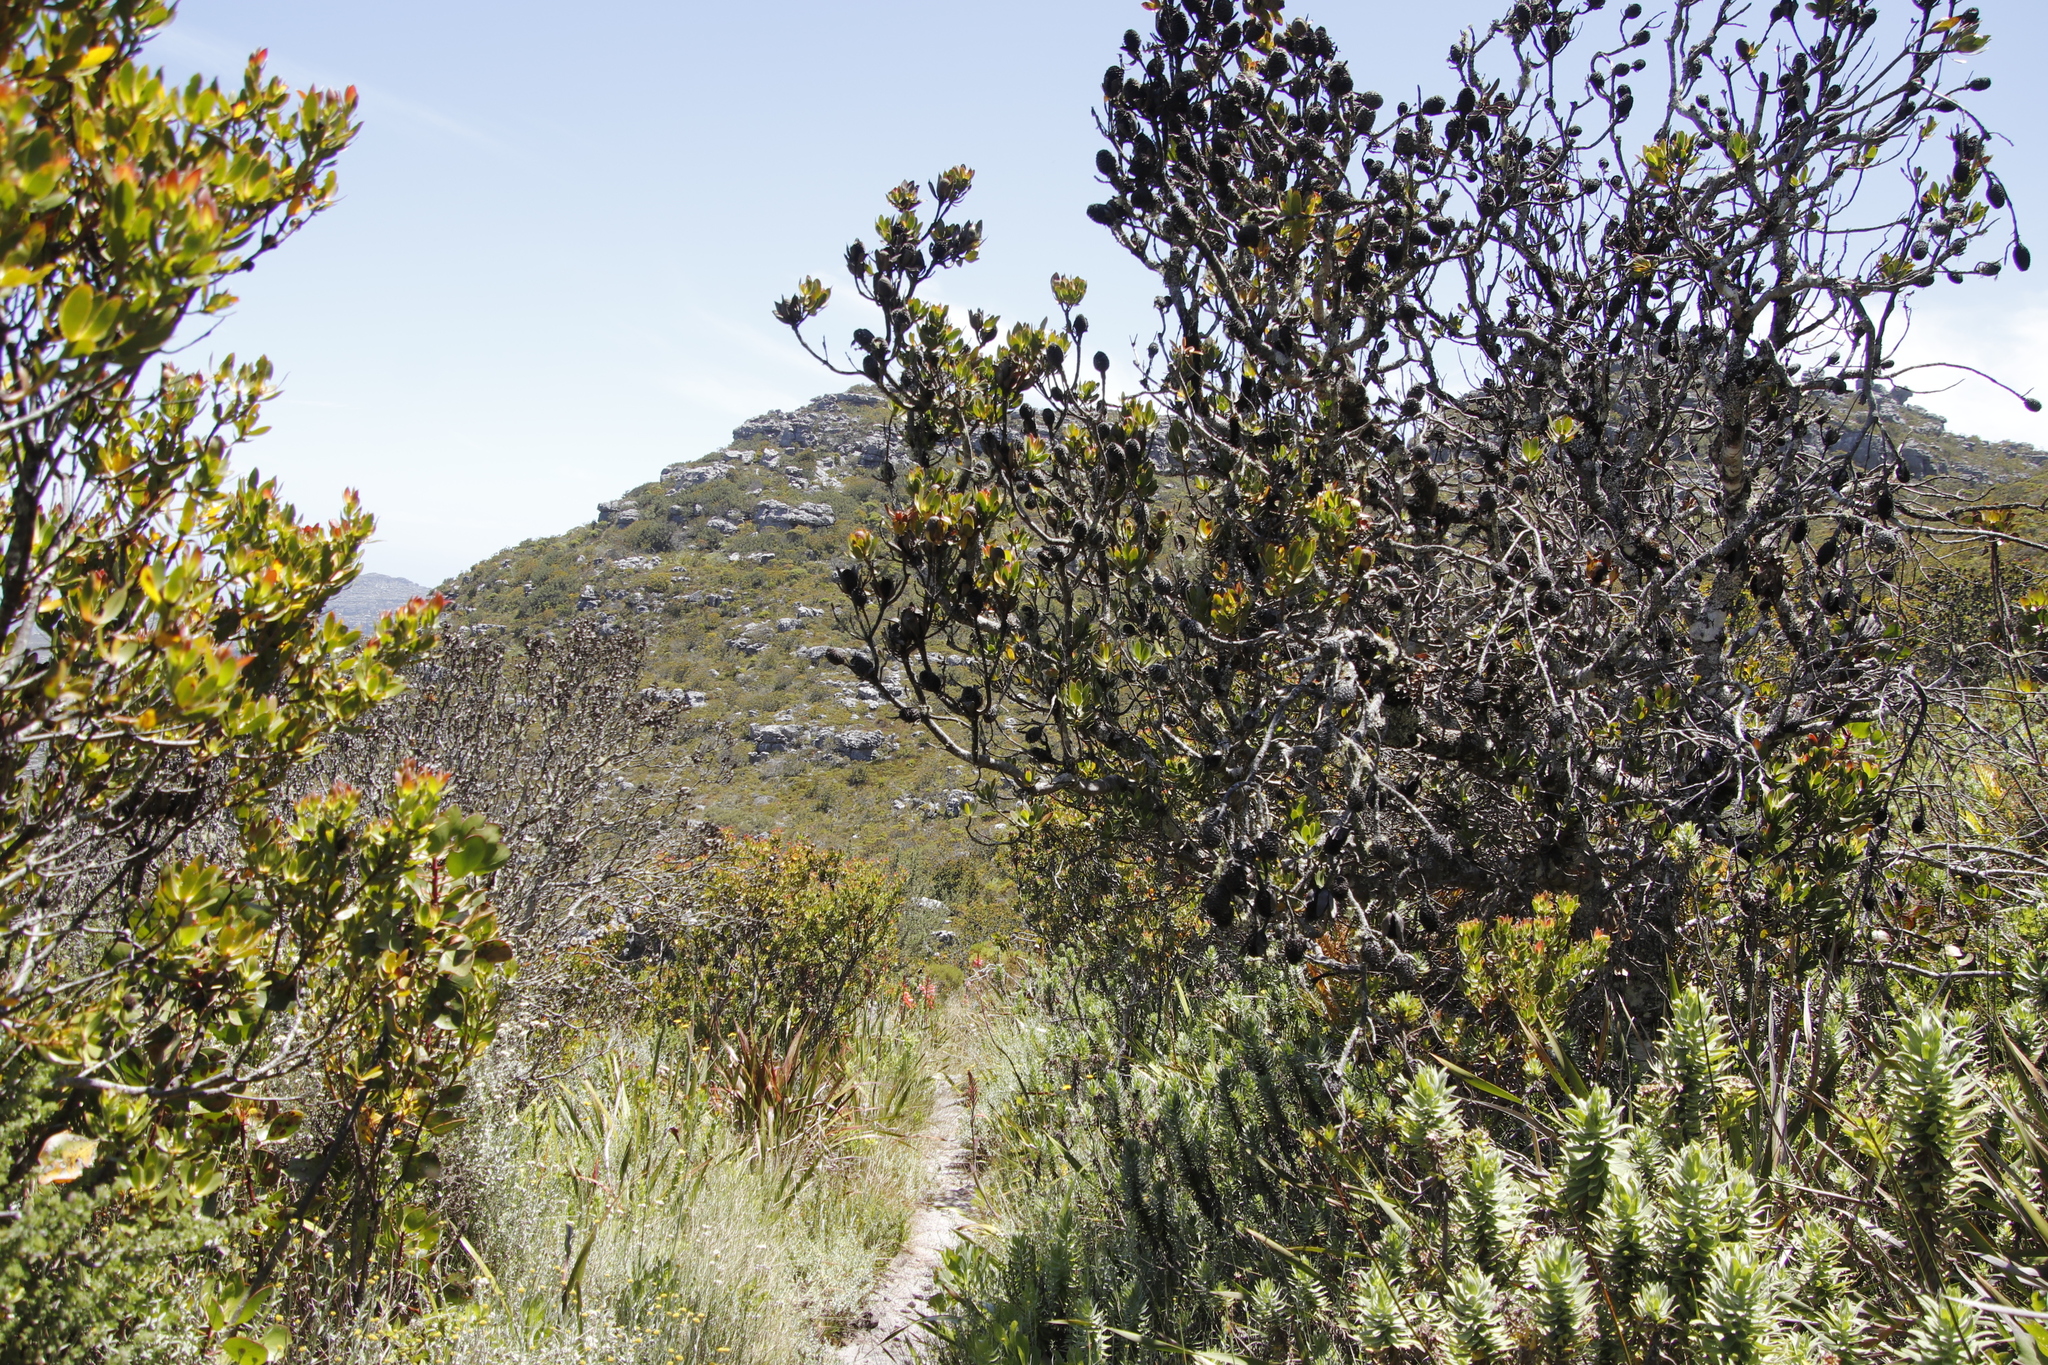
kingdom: Plantae
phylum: Tracheophyta
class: Magnoliopsida
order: Proteales
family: Proteaceae
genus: Leucadendron
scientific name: Leucadendron strobilinum
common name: Mountain rose
